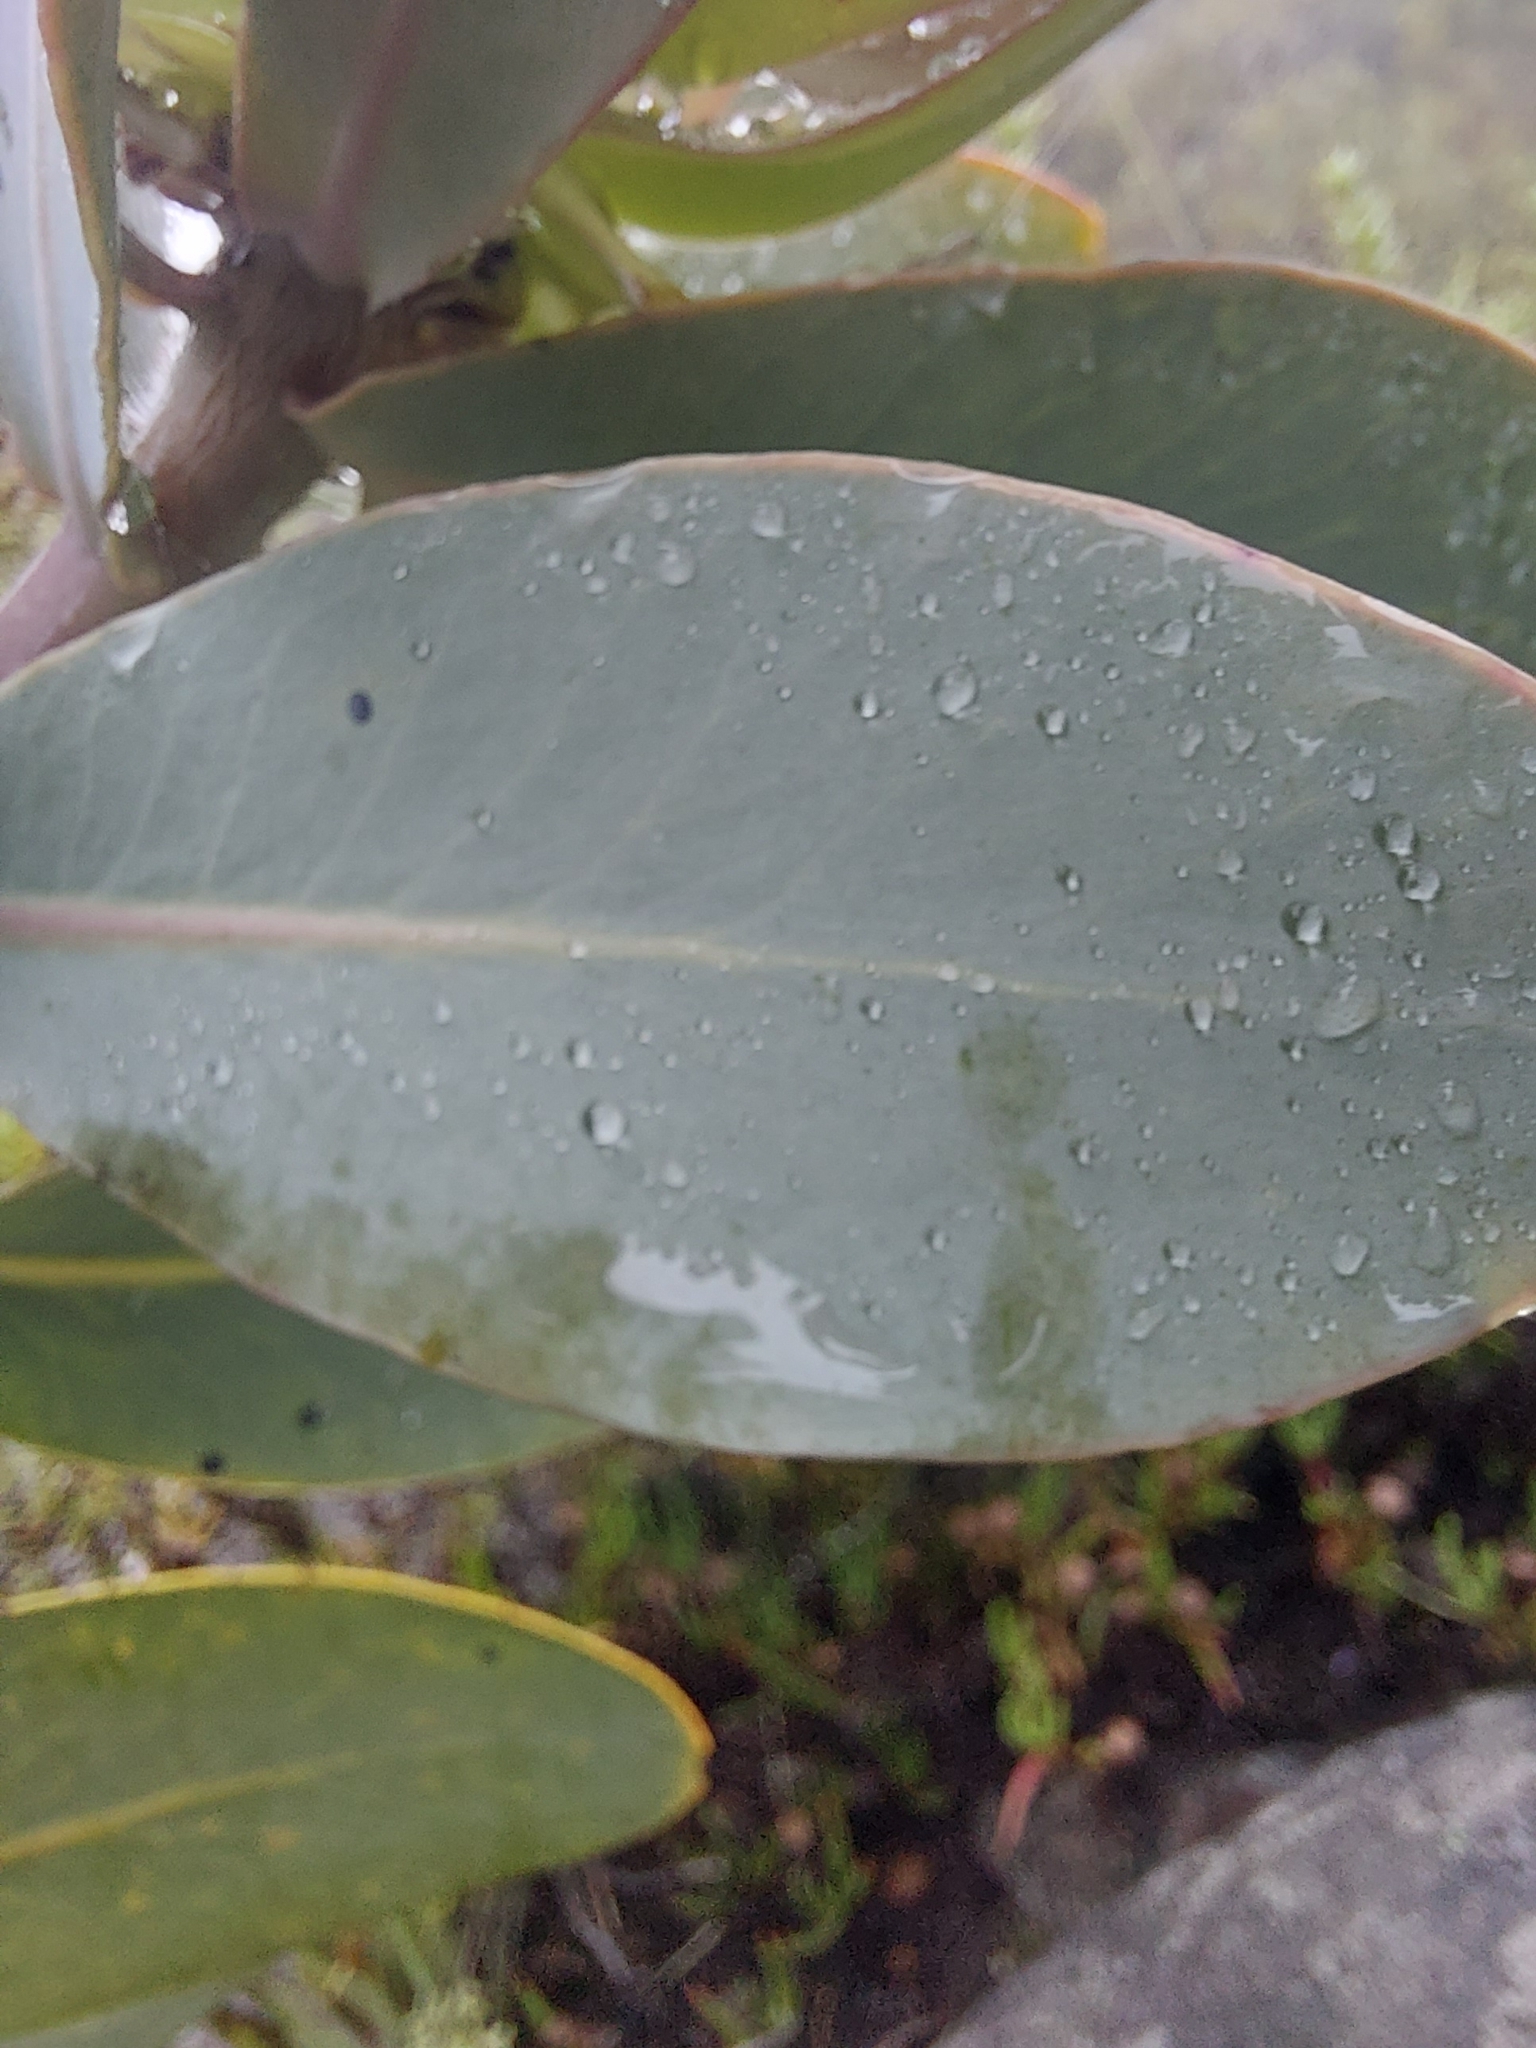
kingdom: Plantae
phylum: Tracheophyta
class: Magnoliopsida
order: Proteales
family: Proteaceae
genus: Protea
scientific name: Protea nitida
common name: Tree protea
